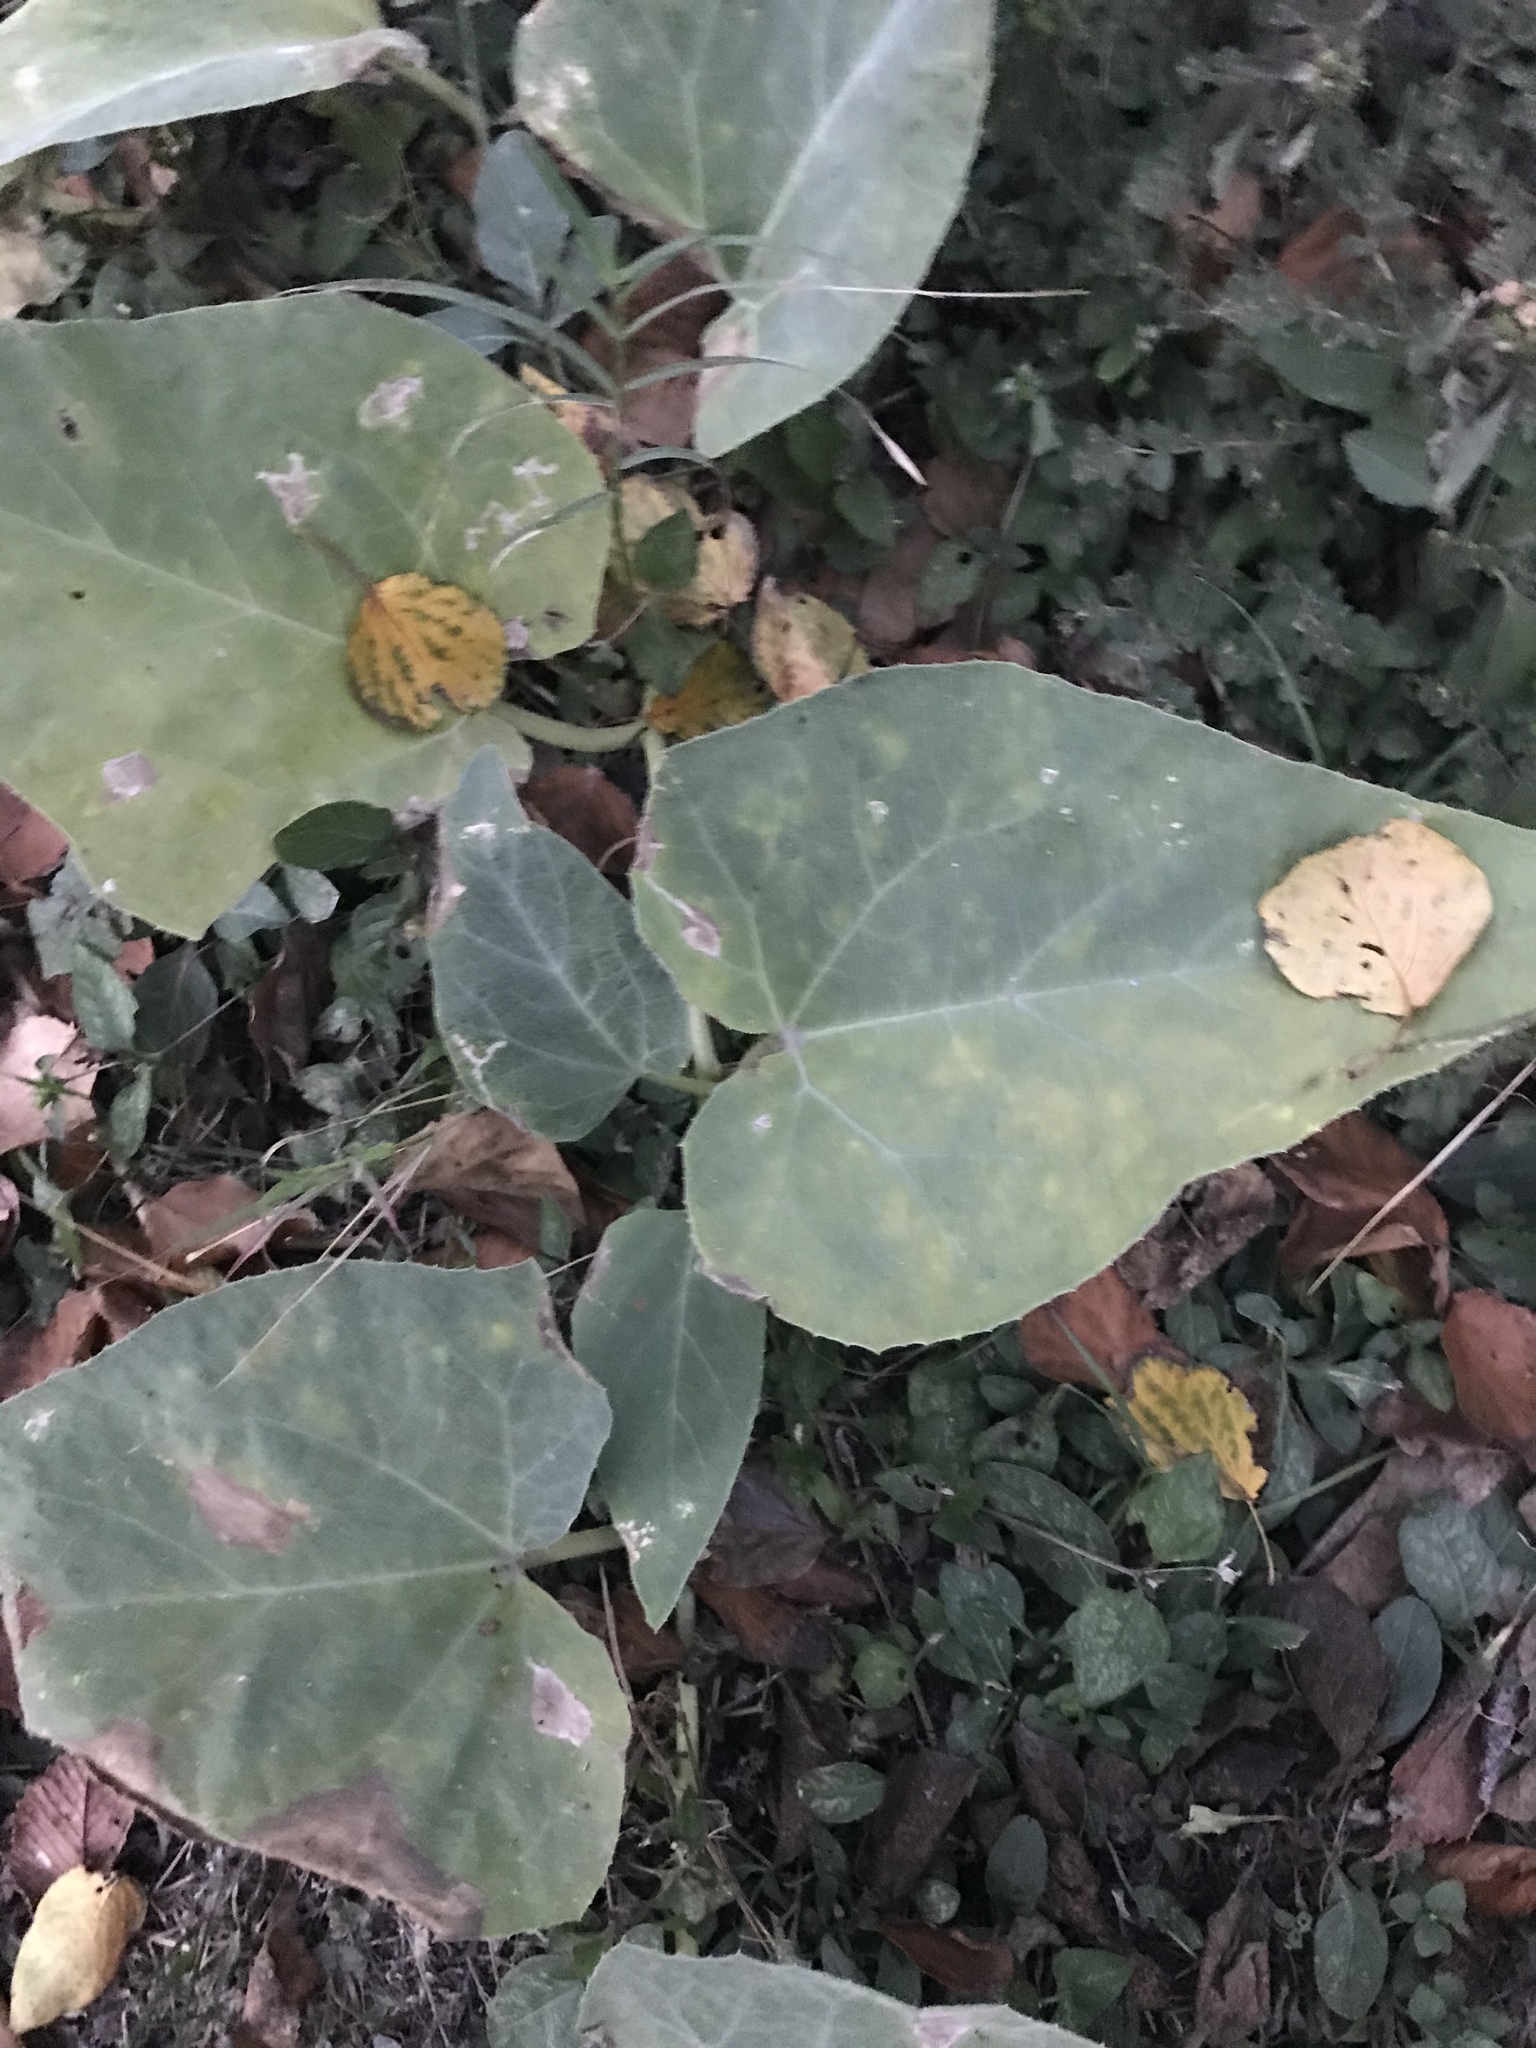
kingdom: Plantae
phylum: Tracheophyta
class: Magnoliopsida
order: Cucurbitales
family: Cucurbitaceae
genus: Cucurbita
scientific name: Cucurbita foetidissima
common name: Buffalo gourd
